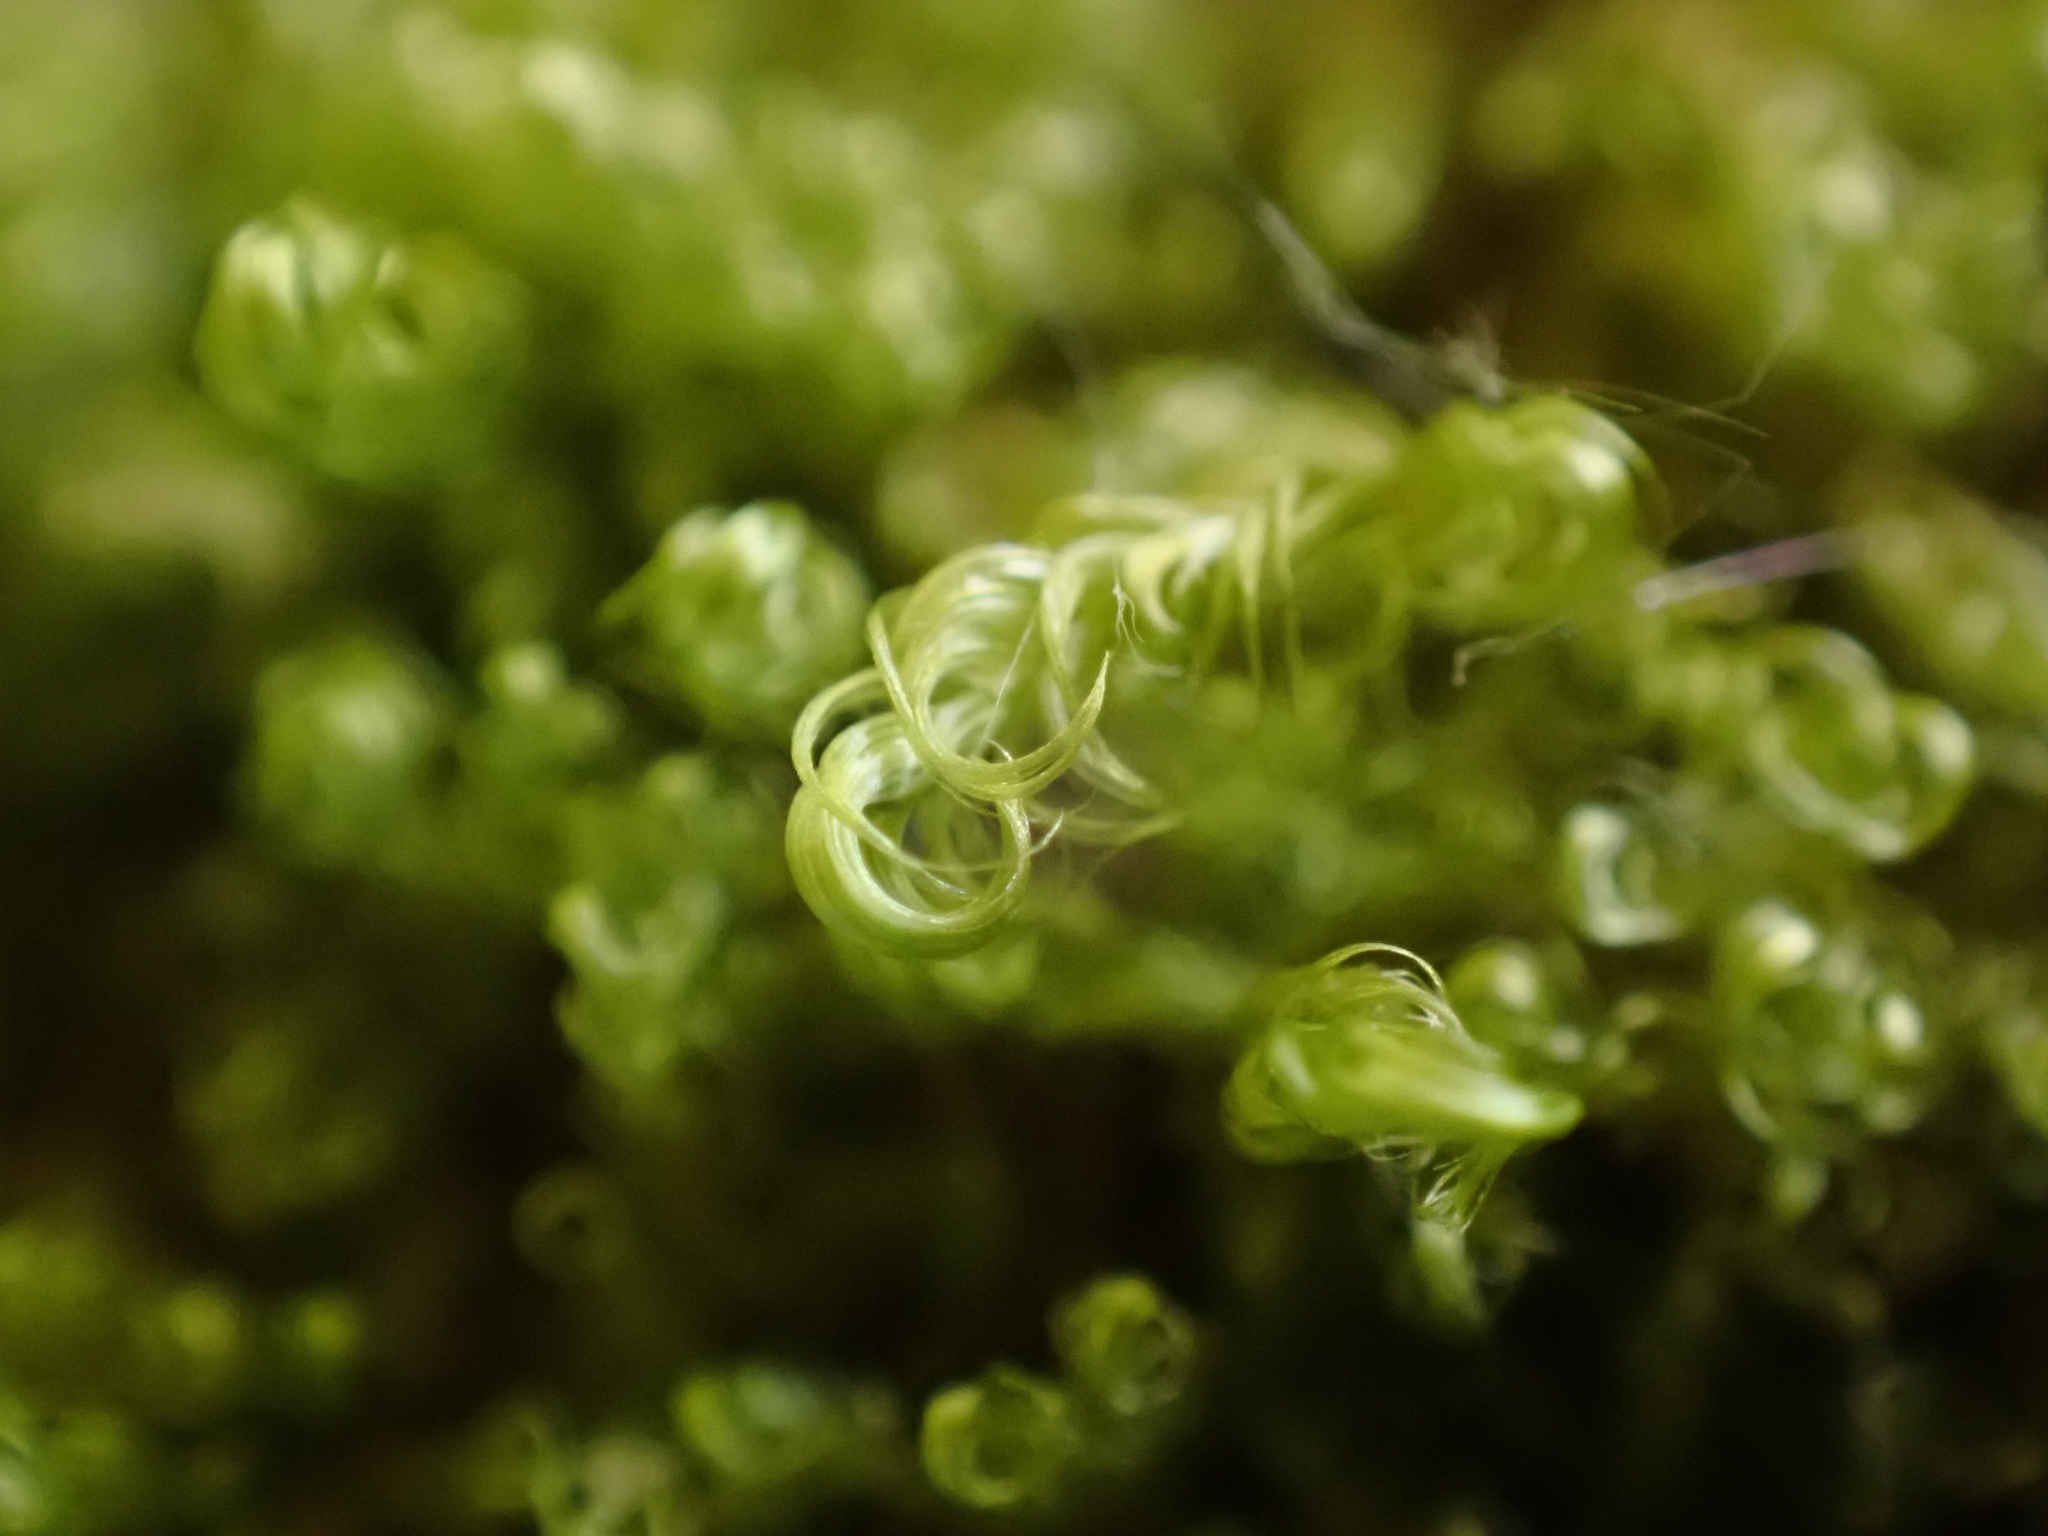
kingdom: Plantae
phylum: Bryophyta
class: Bryopsida
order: Hypnales
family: Scorpidiaceae
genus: Sanionia
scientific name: Sanionia uncinata
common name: Sickle moss
